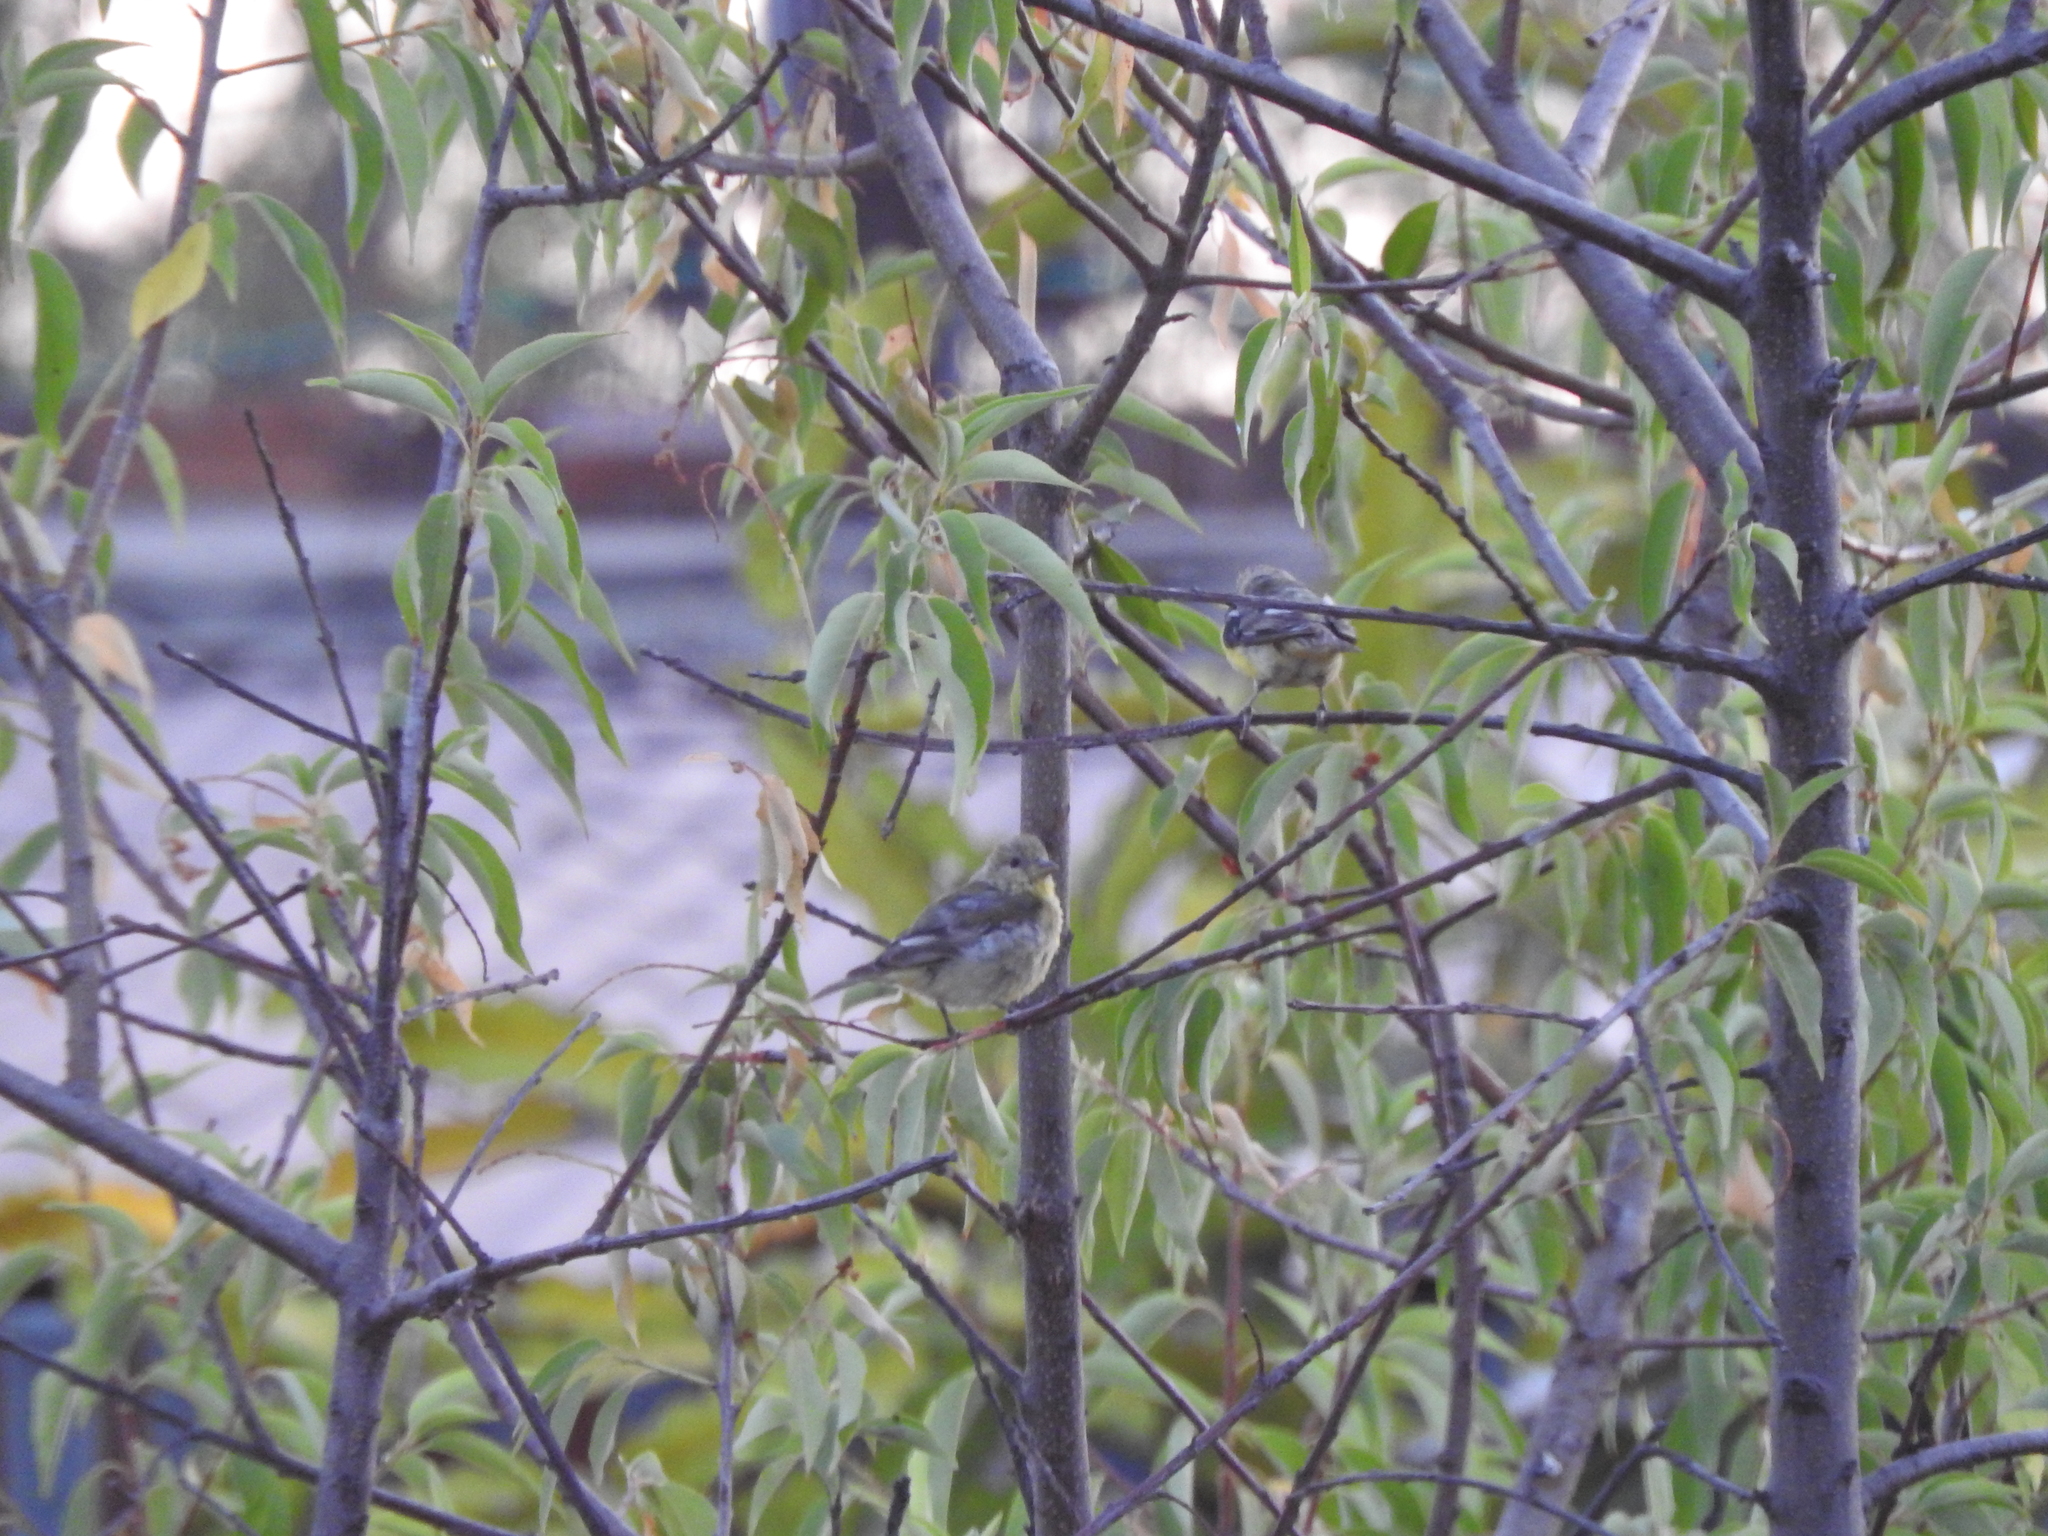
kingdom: Animalia
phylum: Chordata
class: Aves
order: Passeriformes
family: Fringillidae
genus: Spinus
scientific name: Spinus psaltria
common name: Lesser goldfinch
